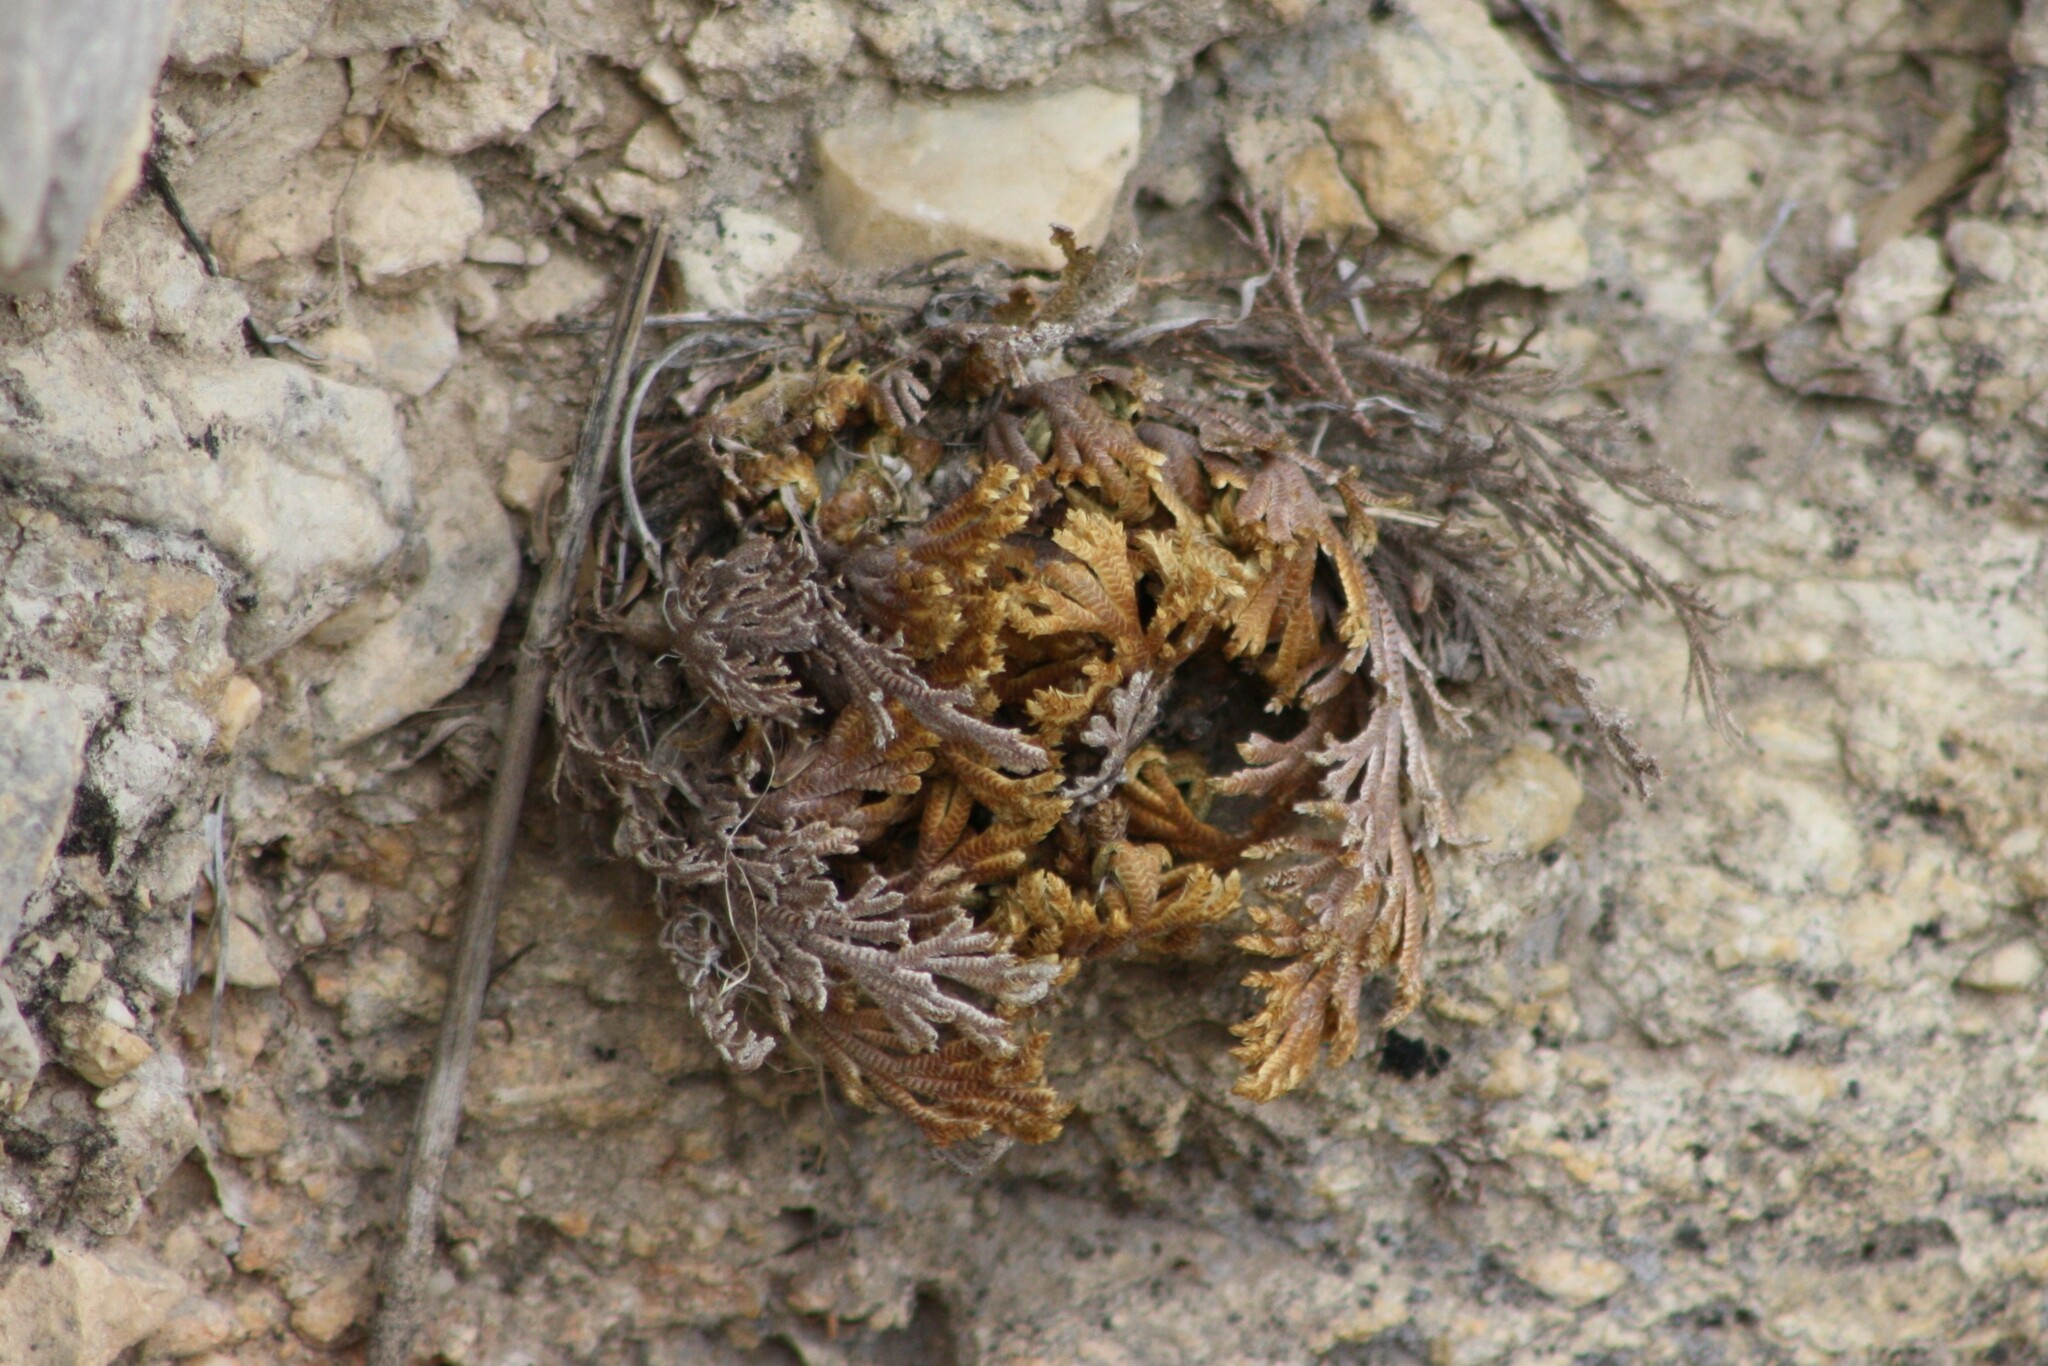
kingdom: Plantae
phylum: Tracheophyta
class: Lycopodiopsida
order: Selaginellales
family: Selaginellaceae
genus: Selaginella
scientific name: Selaginella lepidophylla
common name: Rose-of-jericho
